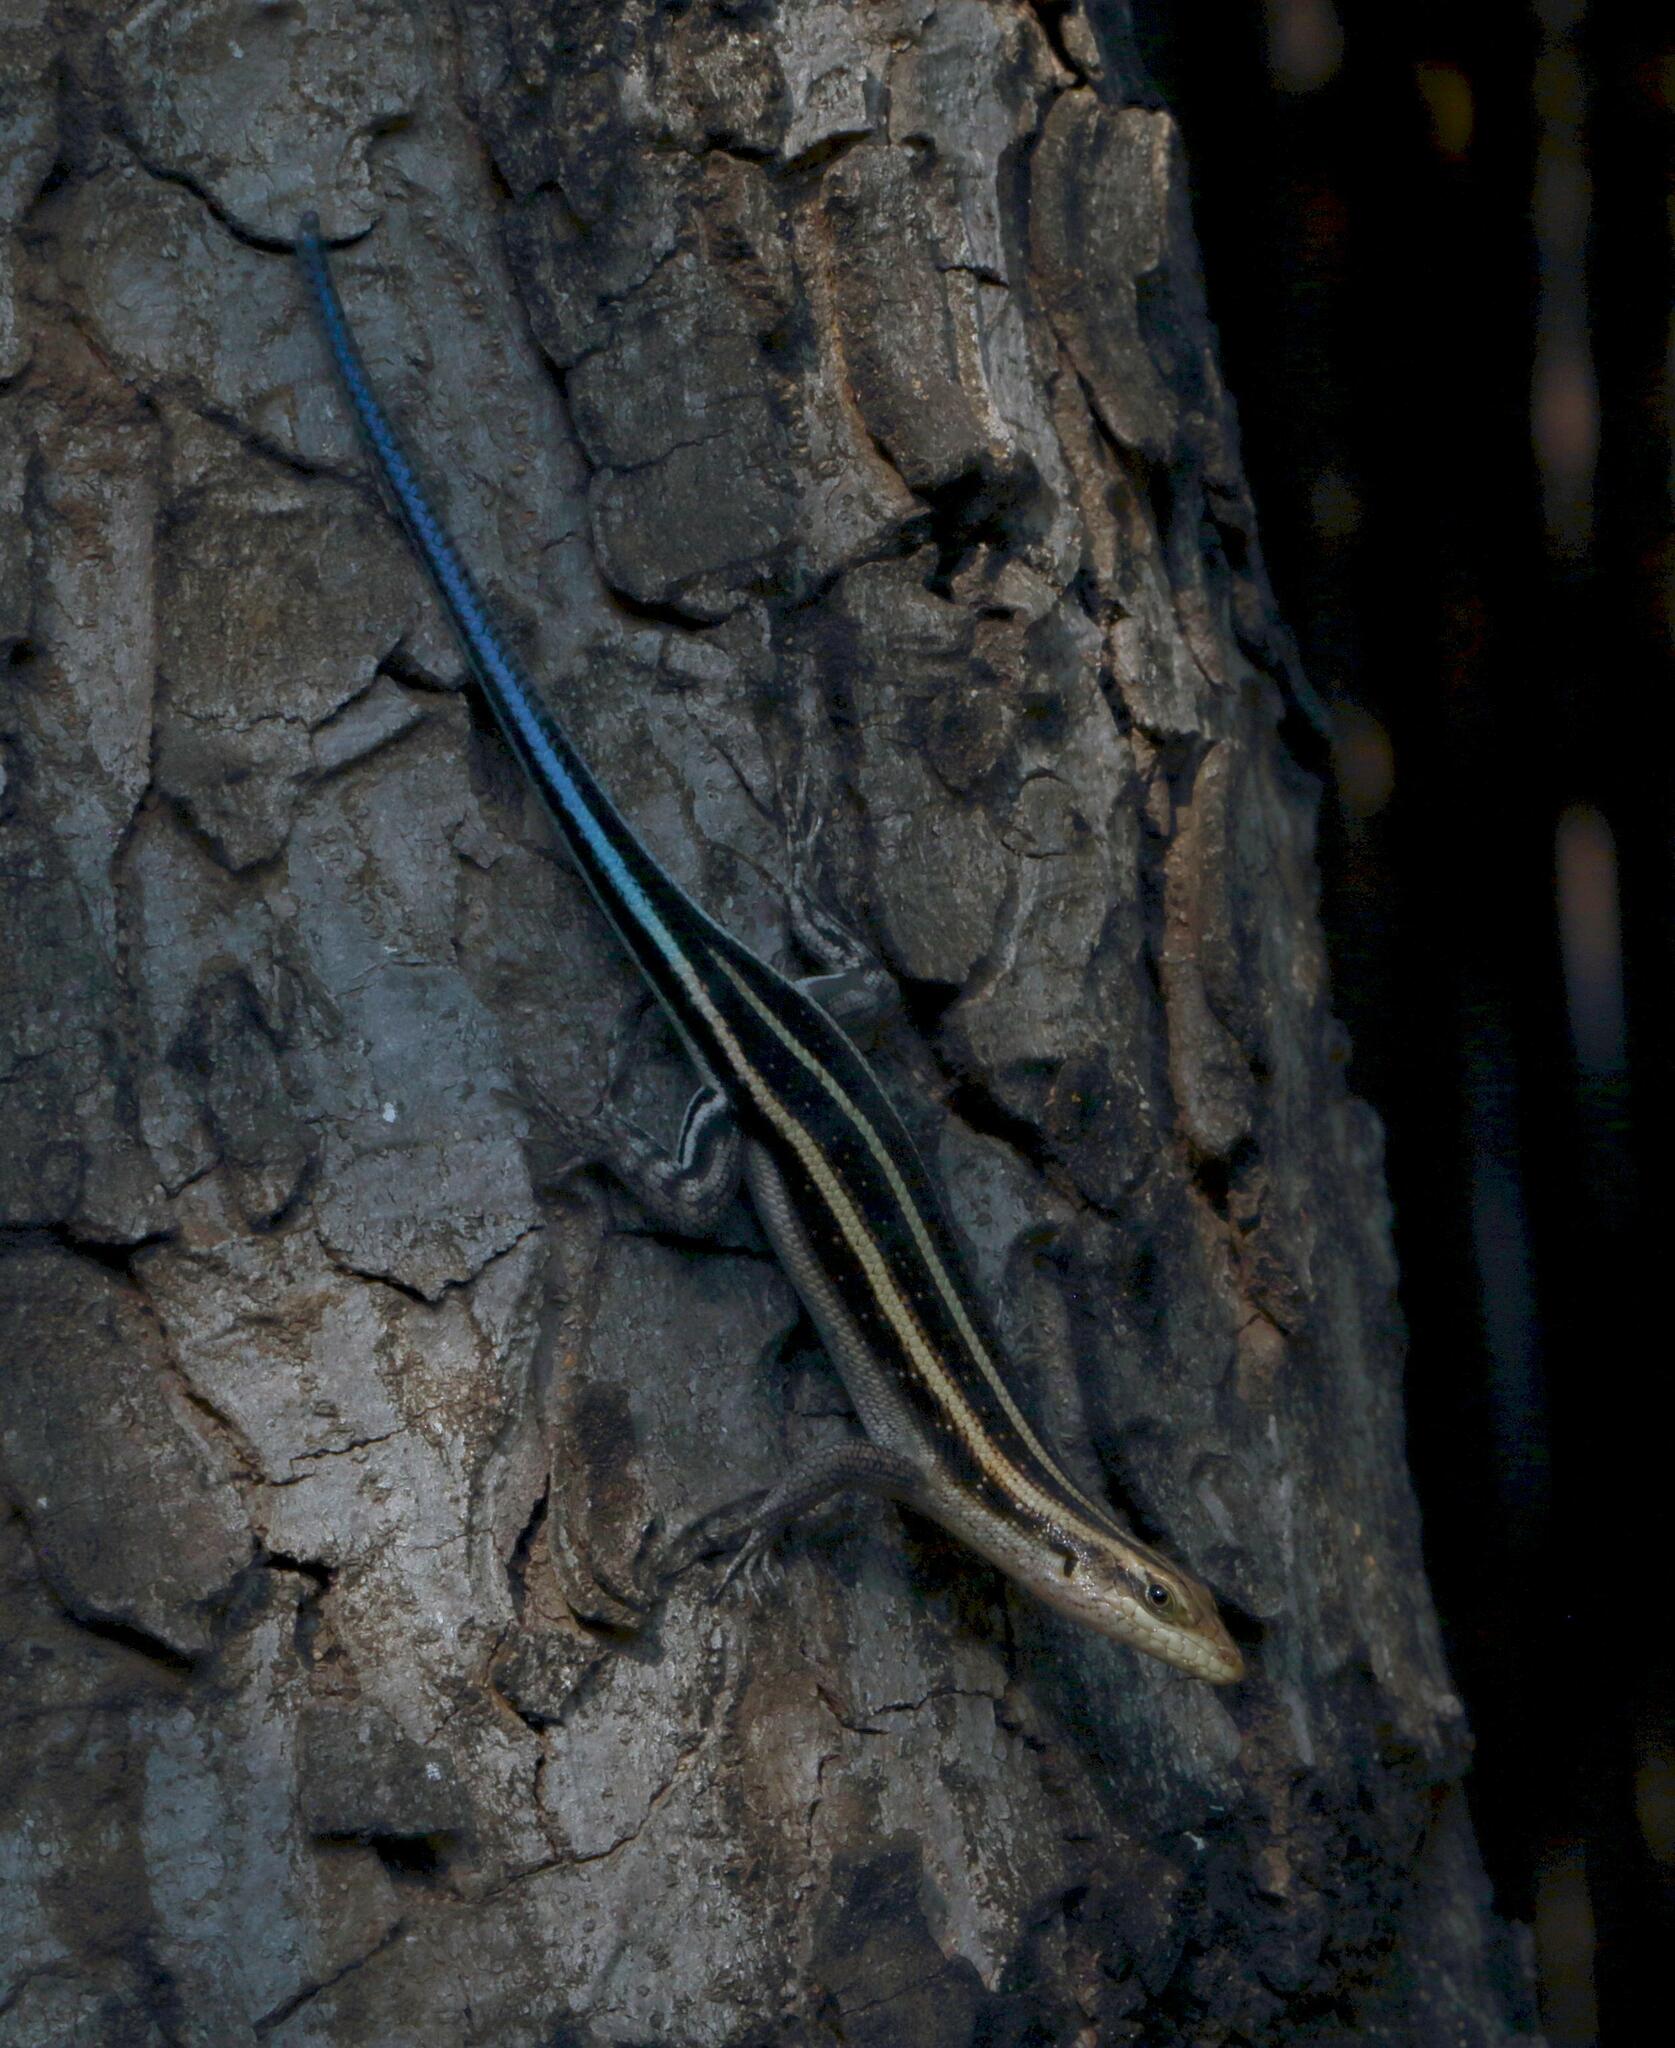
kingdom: Animalia
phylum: Chordata
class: Squamata
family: Scincidae
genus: Trachylepis
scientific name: Trachylepis margaritifera
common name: Rainbow skink
